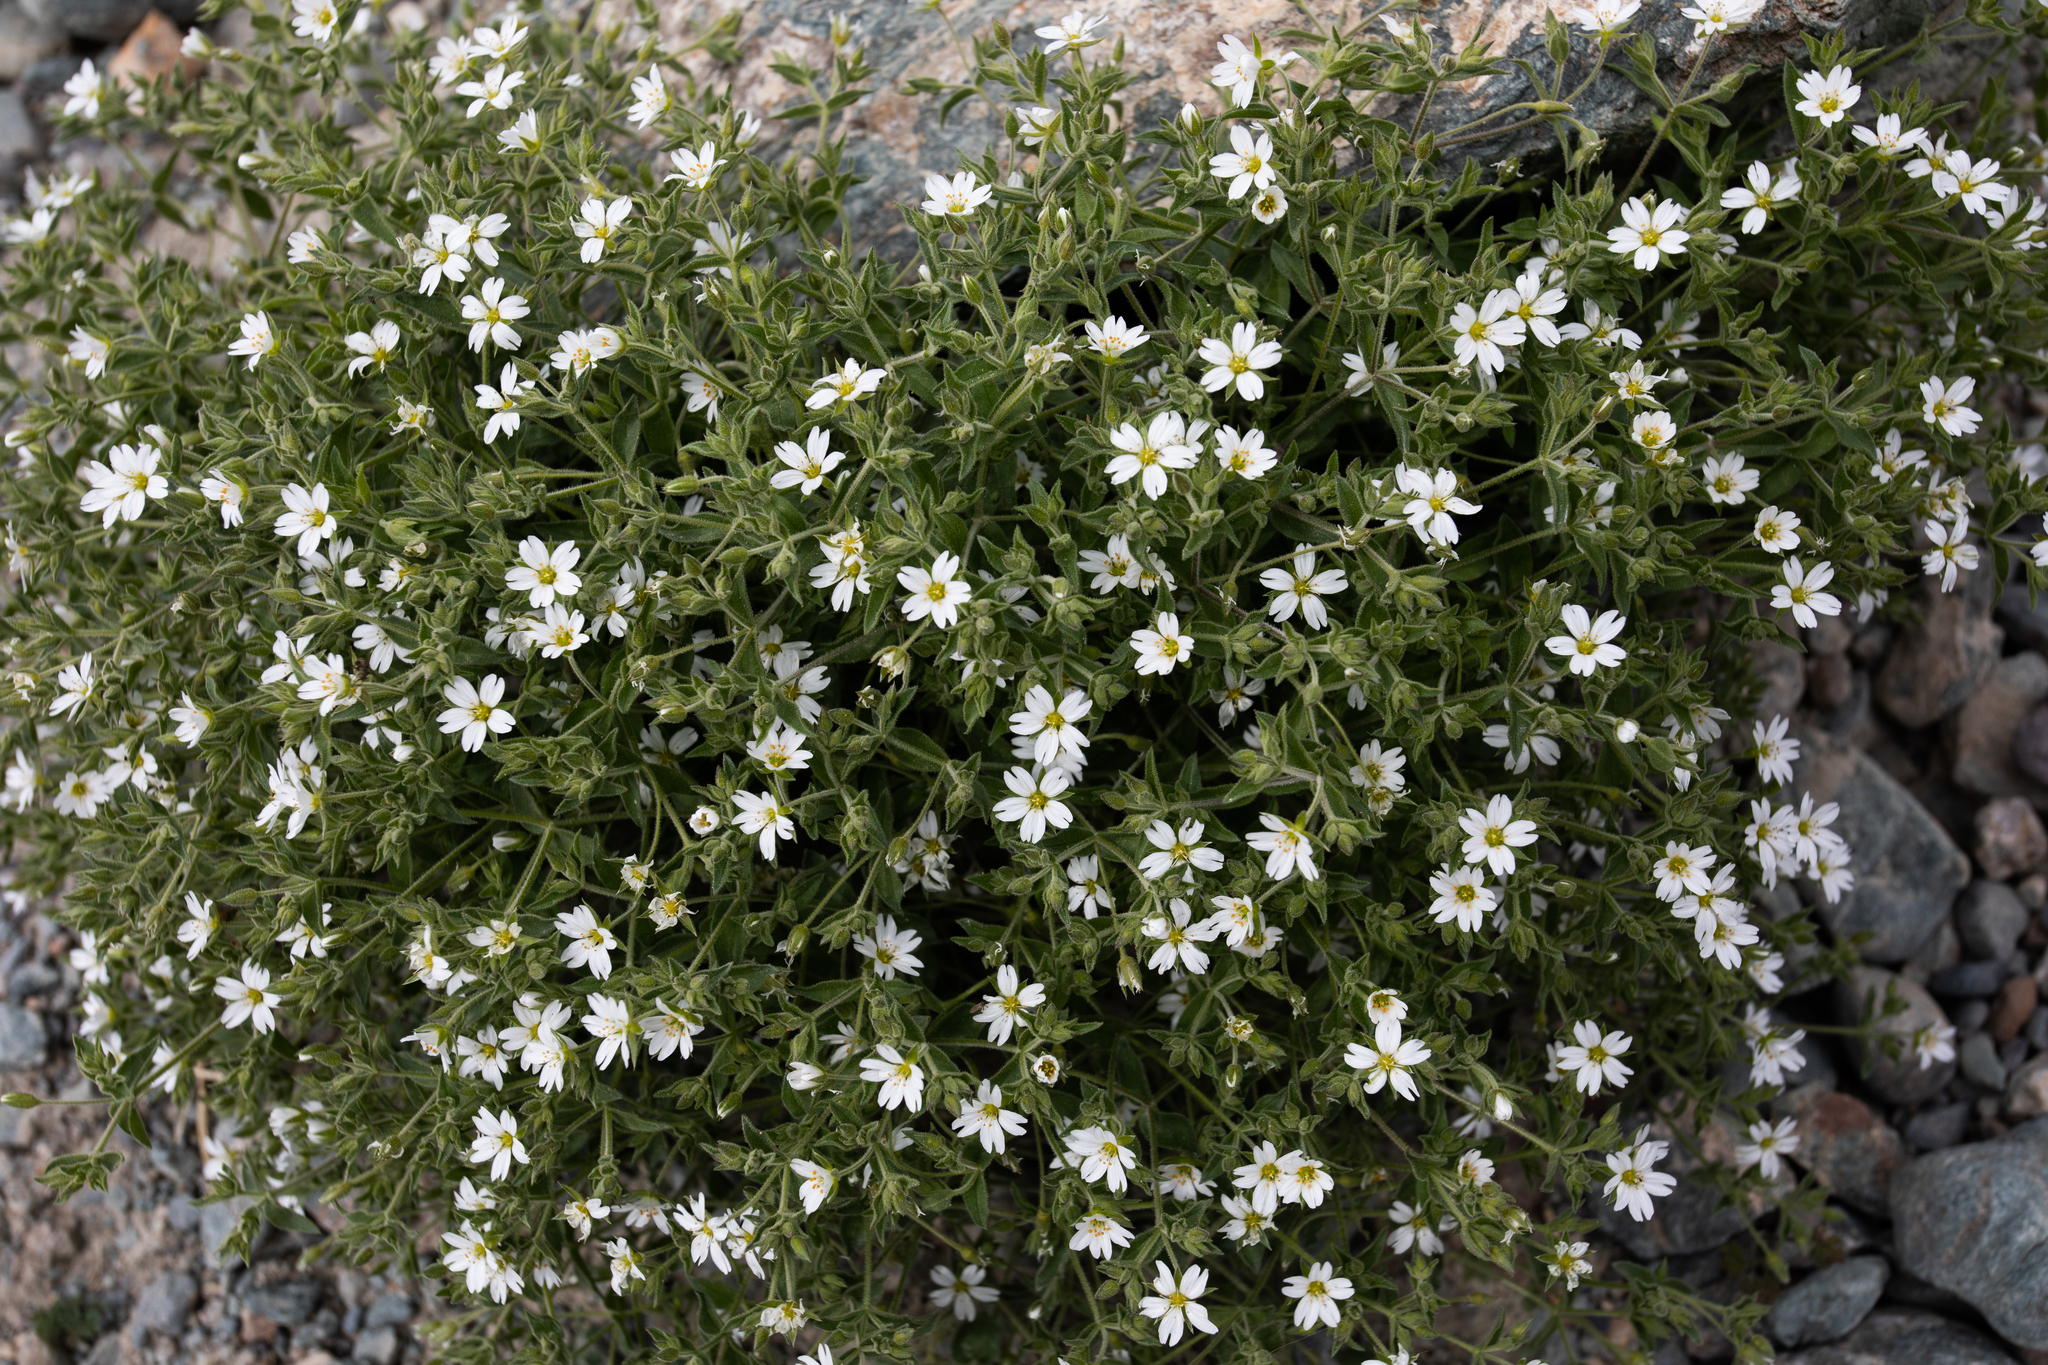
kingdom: Plantae
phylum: Tracheophyta
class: Magnoliopsida
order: Caryophyllales
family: Caryophyllaceae
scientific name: Caryophyllaceae
